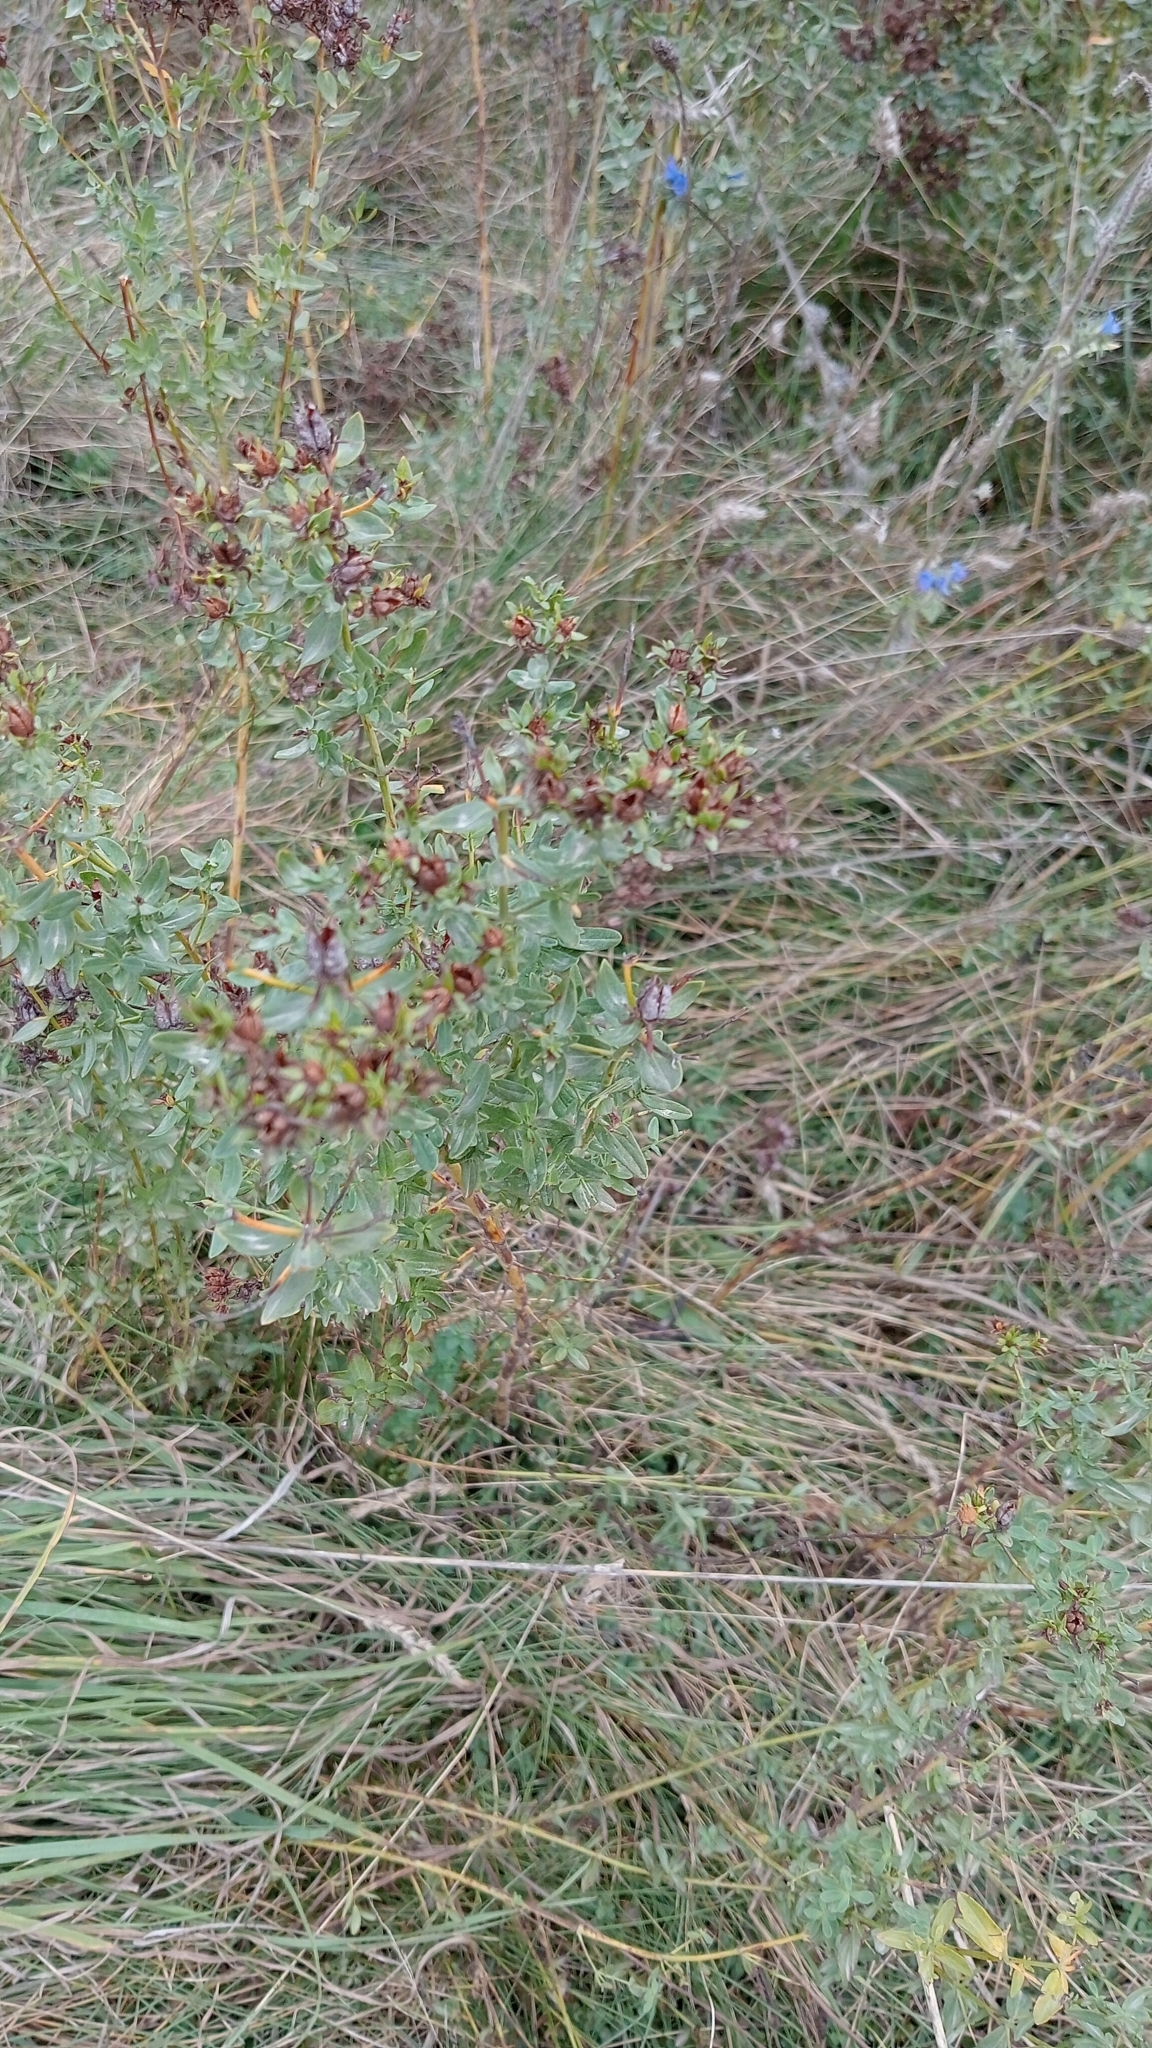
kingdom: Plantae
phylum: Tracheophyta
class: Magnoliopsida
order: Malpighiales
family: Hypericaceae
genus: Hypericum
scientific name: Hypericum perforatum
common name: Common st. johnswort
